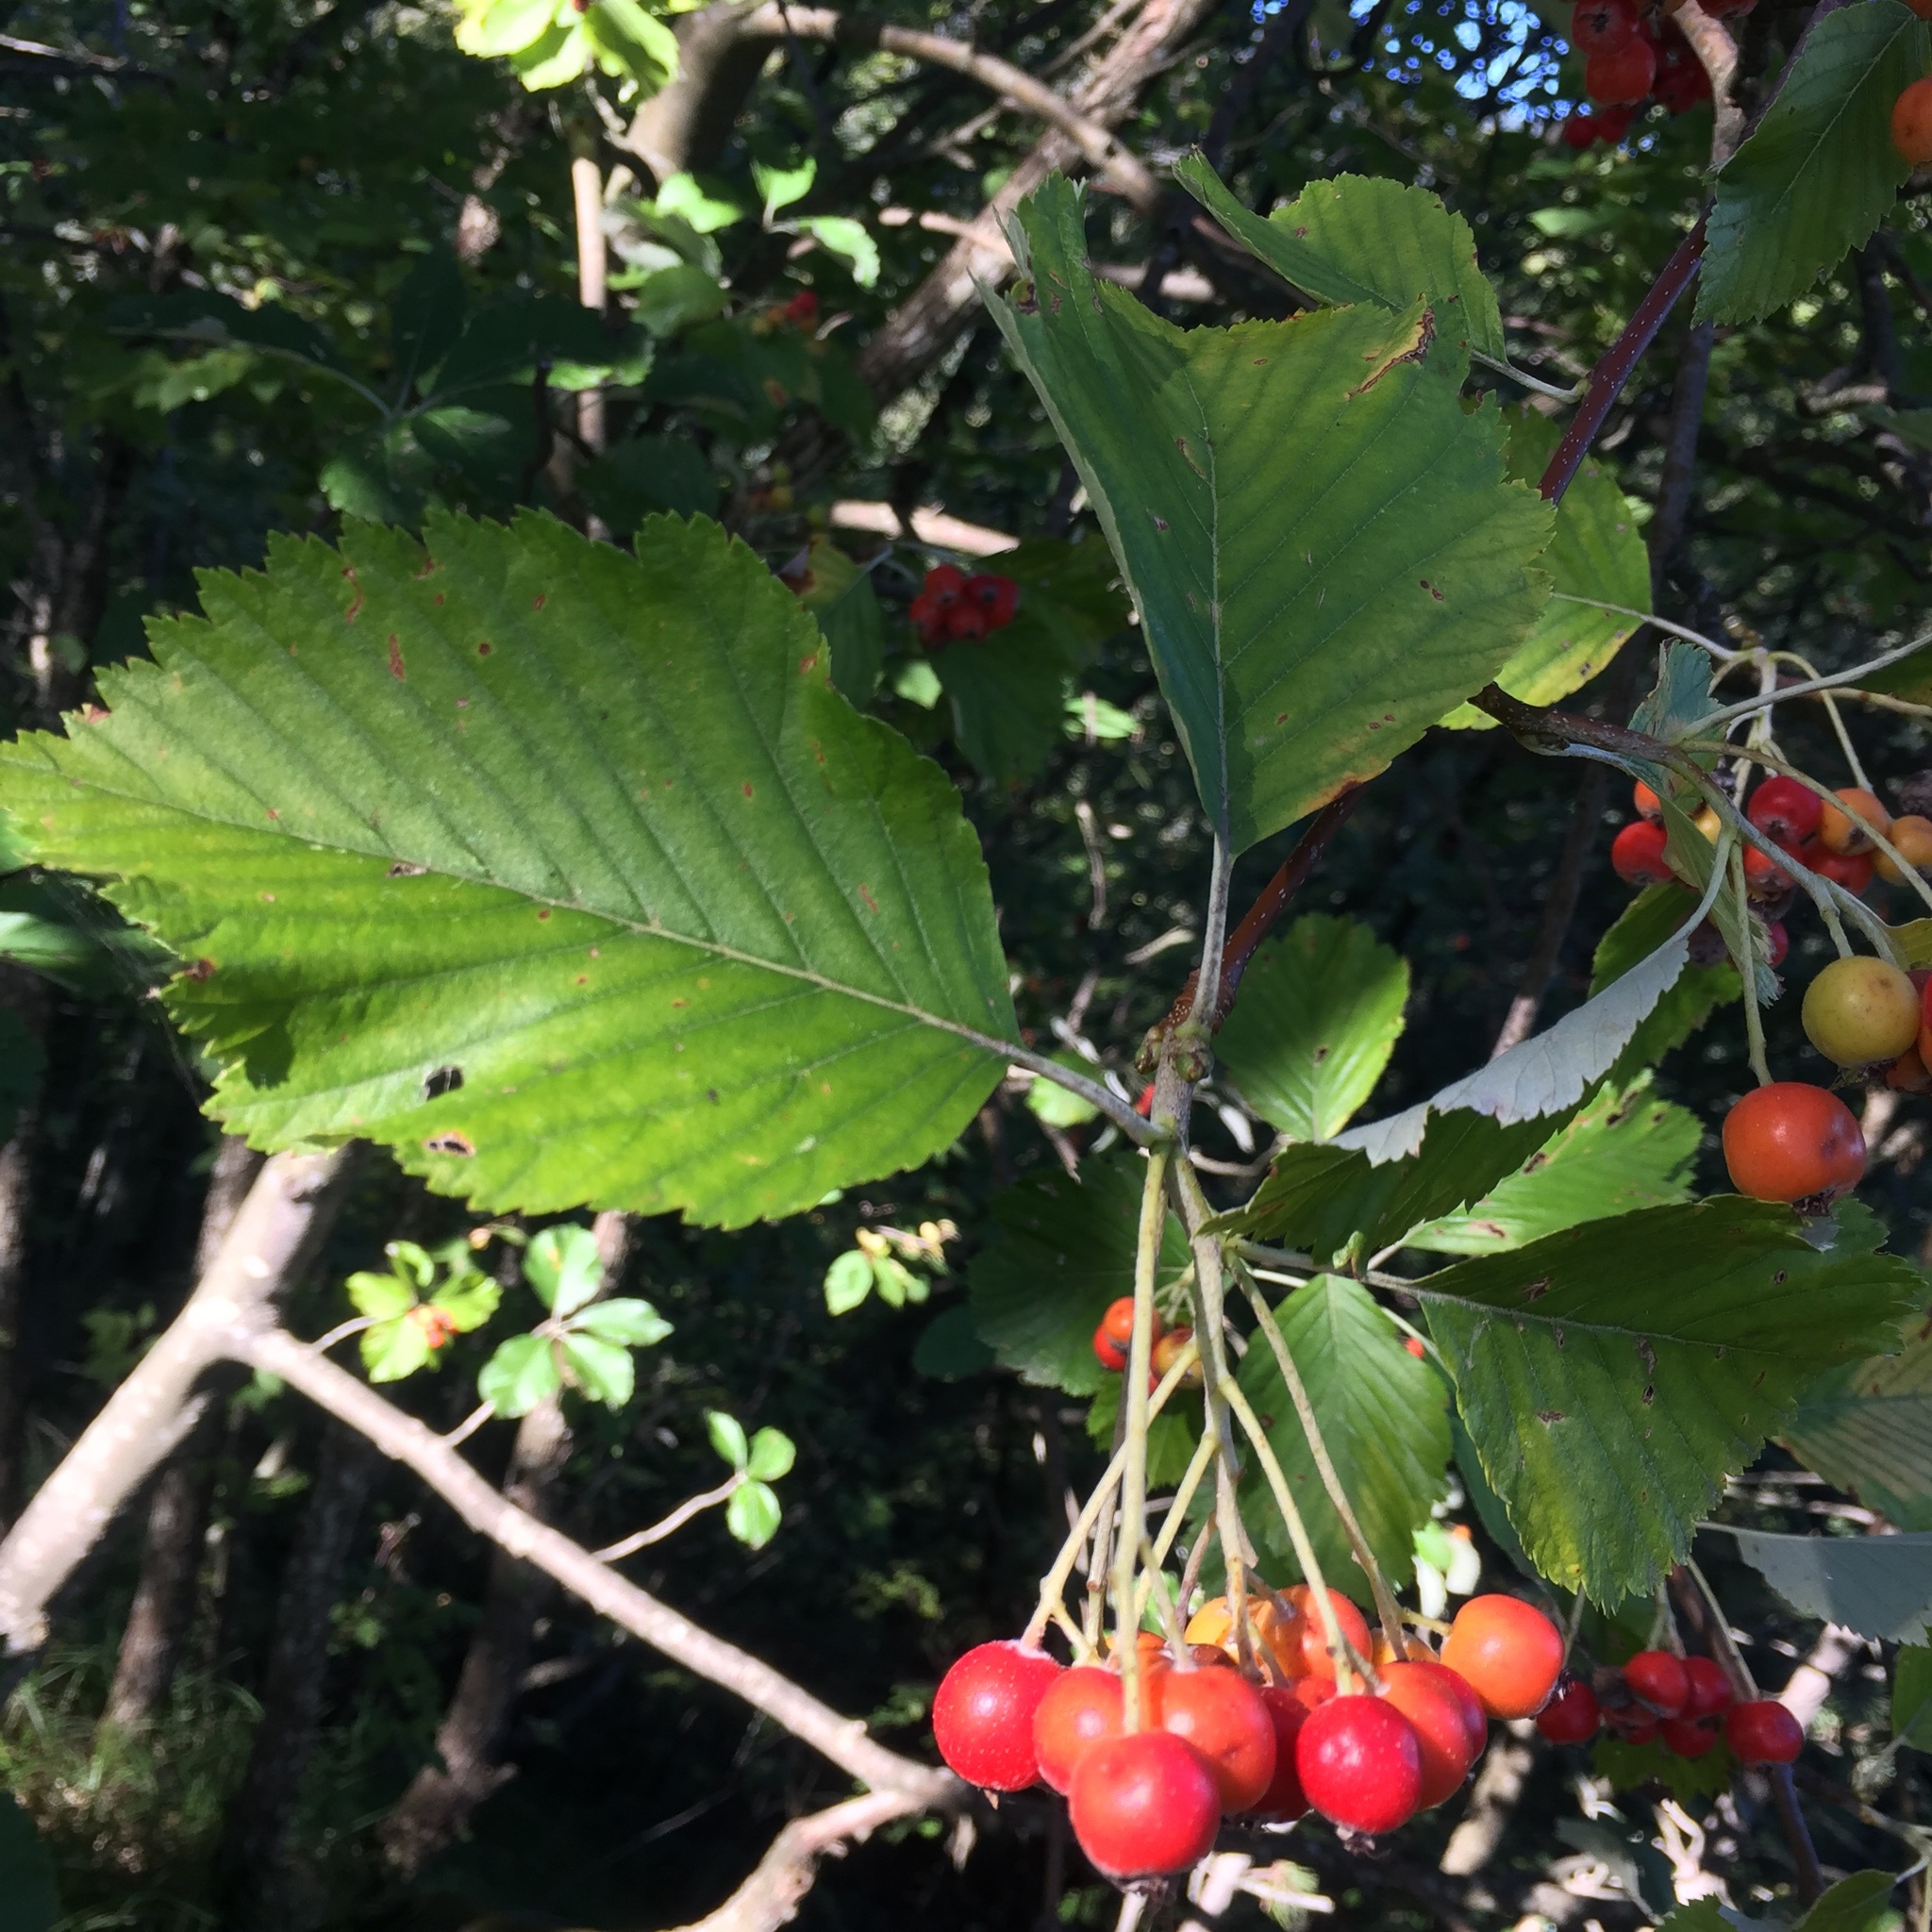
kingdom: Plantae
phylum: Tracheophyta
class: Magnoliopsida
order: Rosales
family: Rosaceae
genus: Aria
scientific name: Aria edulis
